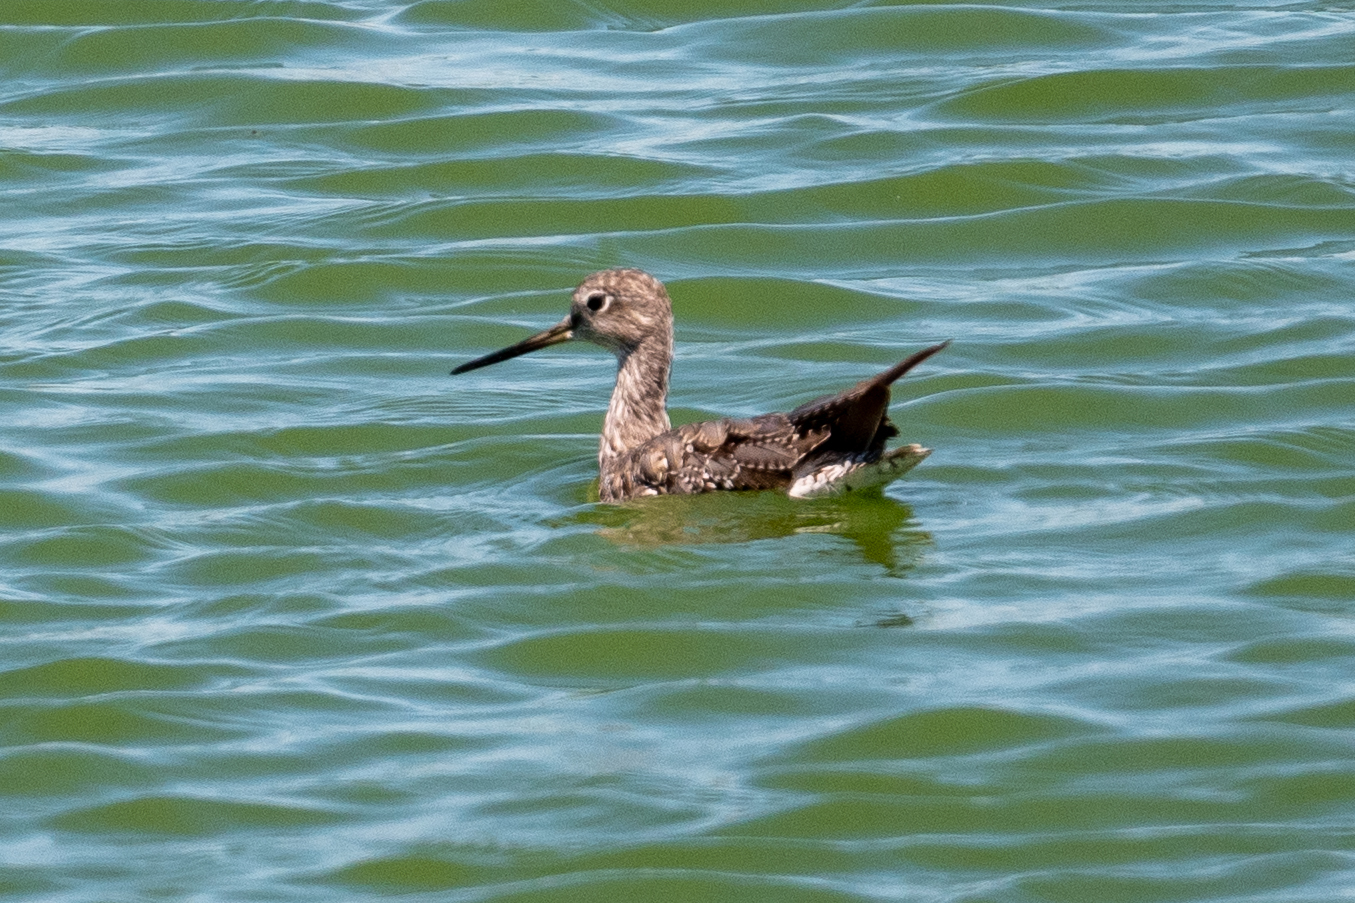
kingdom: Animalia
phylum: Chordata
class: Aves
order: Charadriiformes
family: Scolopacidae
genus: Tringa
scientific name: Tringa melanoleuca
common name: Greater yellowlegs
